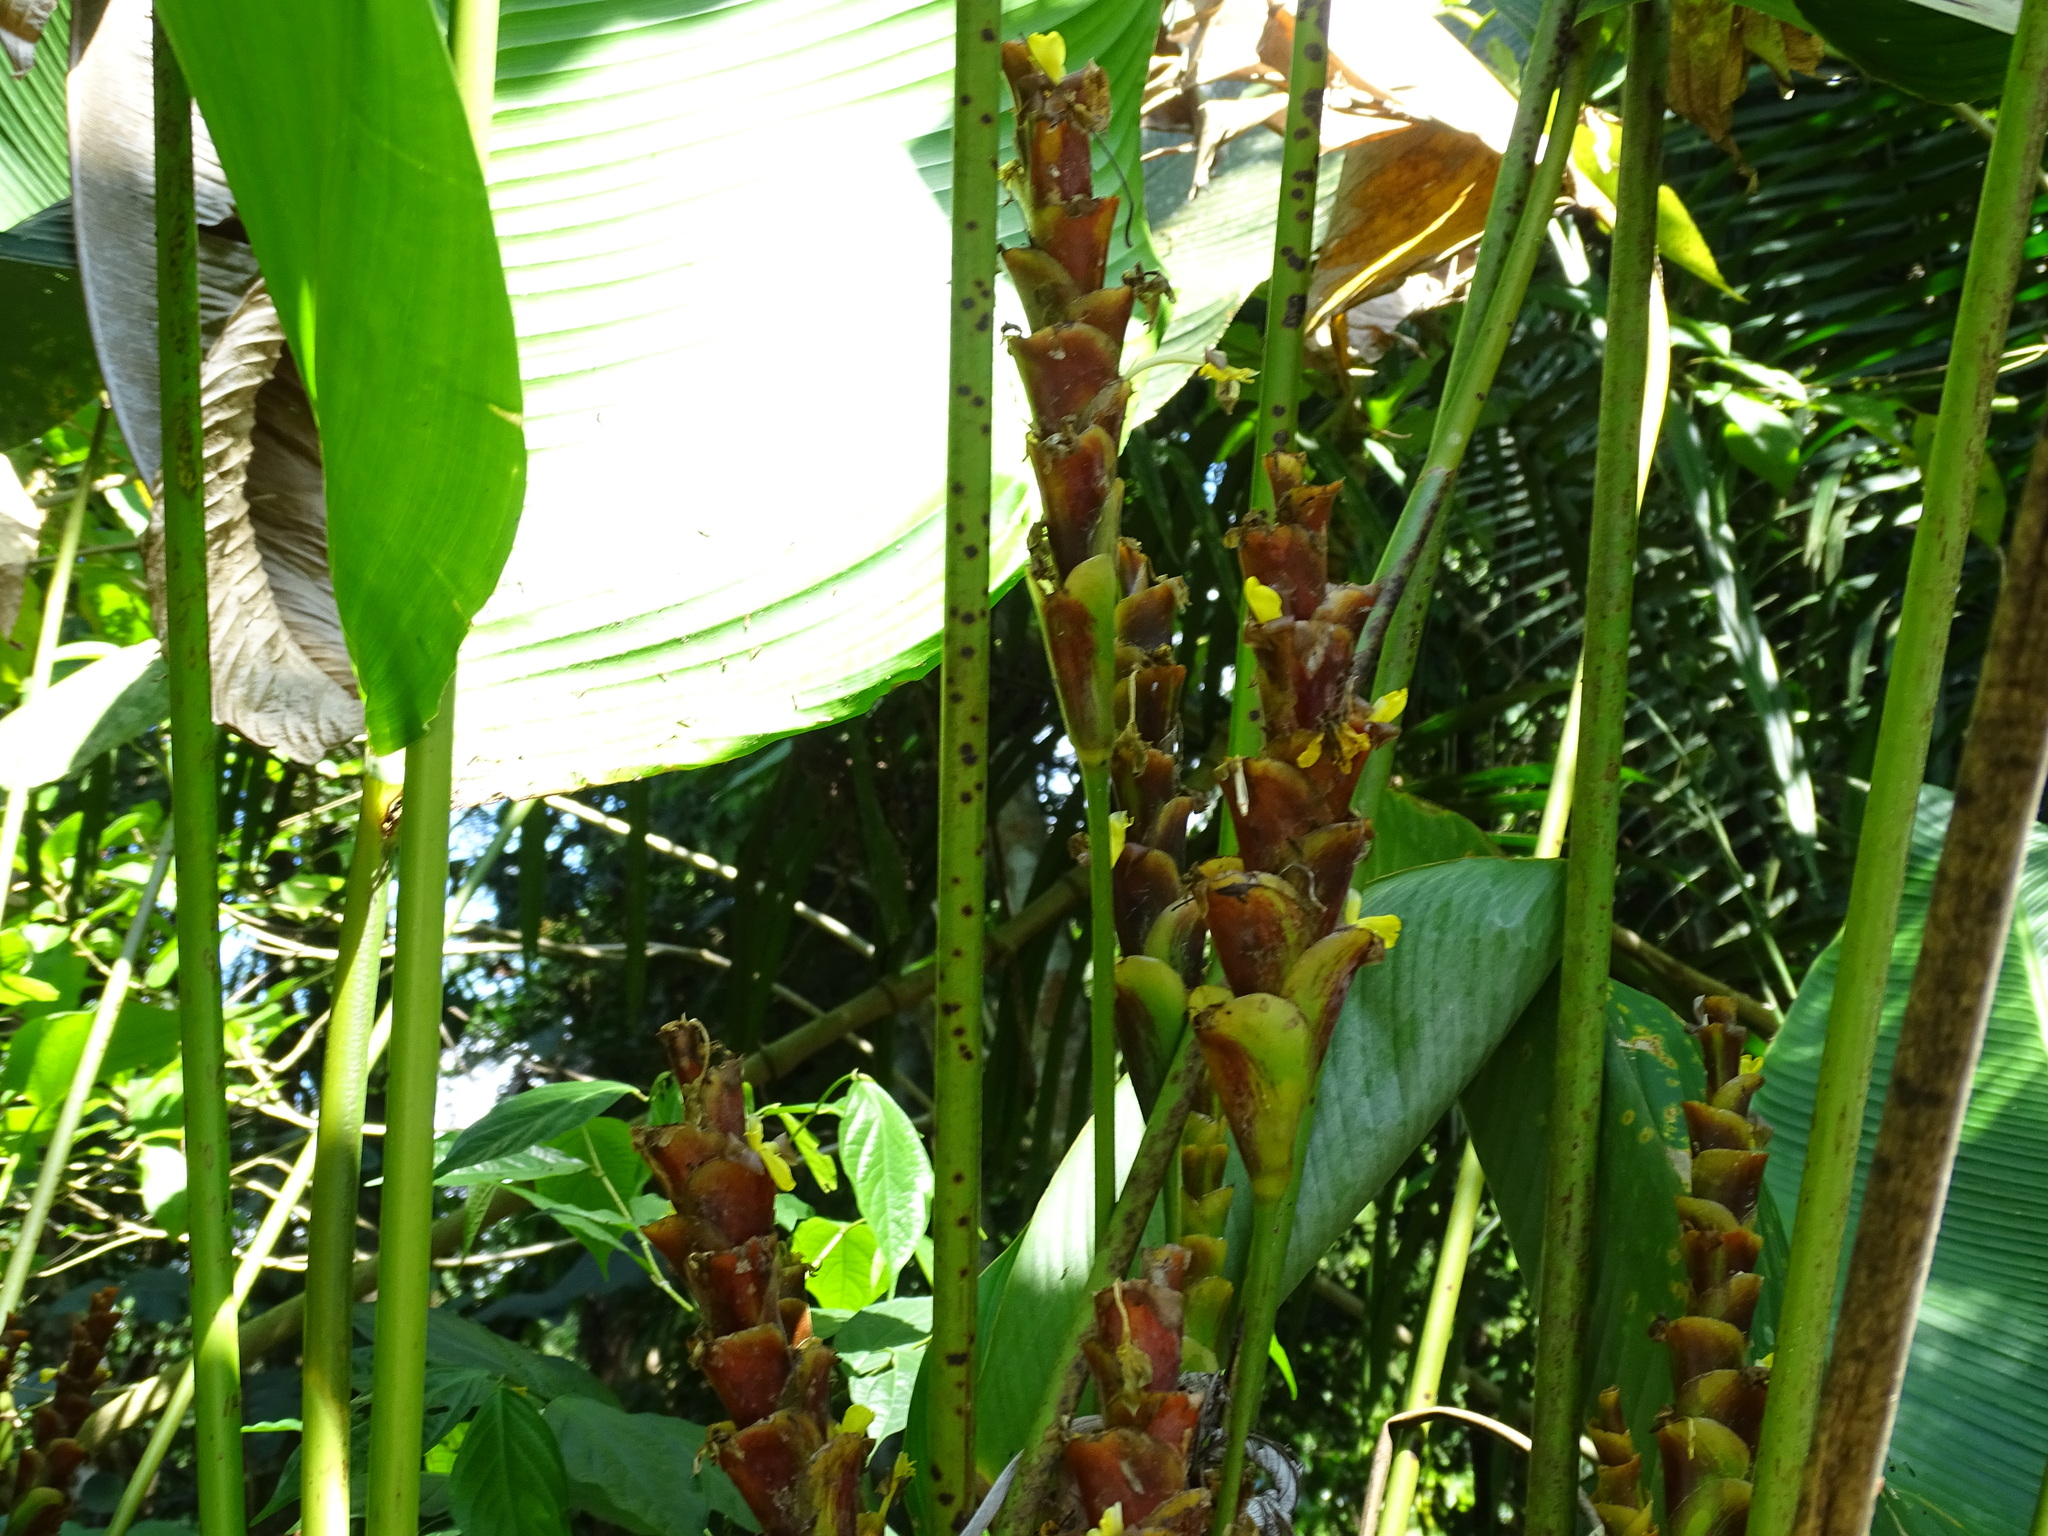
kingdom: Plantae
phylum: Tracheophyta
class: Liliopsida
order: Zingiberales
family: Marantaceae
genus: Calathea
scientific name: Calathea lutea
